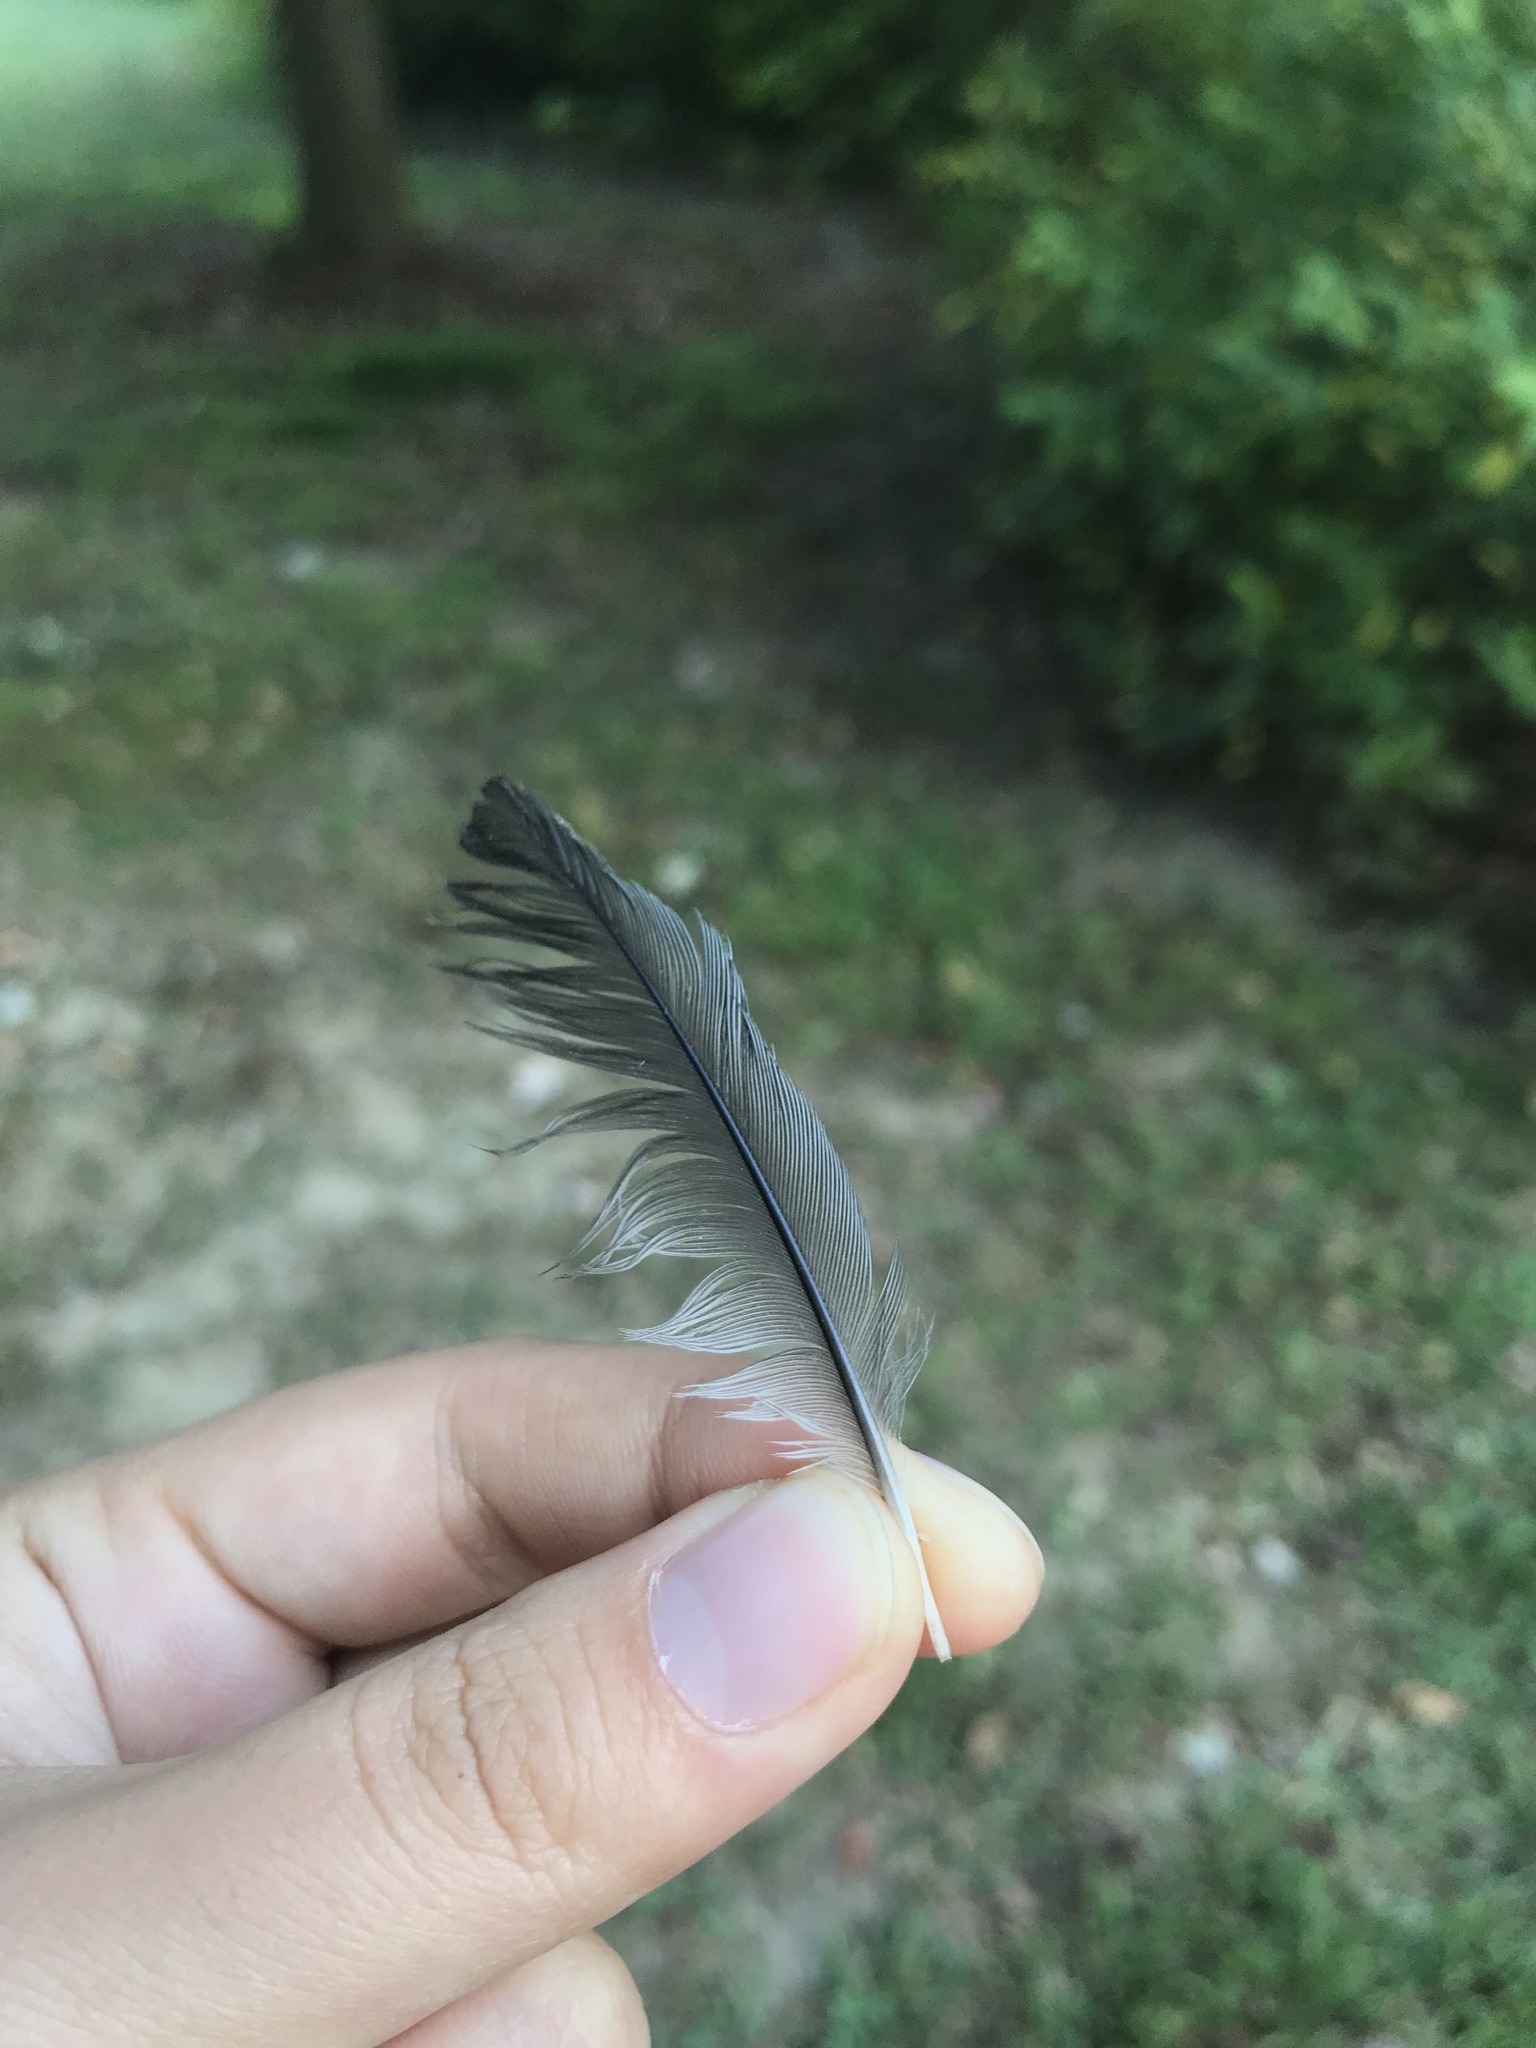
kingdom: Animalia
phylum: Chordata
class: Aves
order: Passeriformes
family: Mimidae
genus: Dumetella
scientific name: Dumetella carolinensis
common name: Gray catbird
